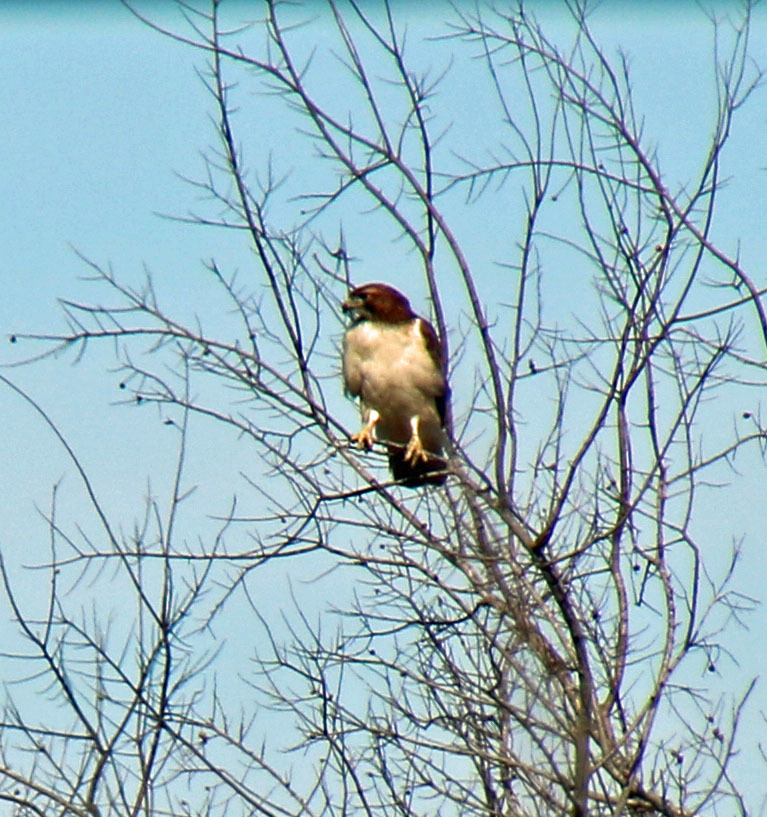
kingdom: Animalia
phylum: Chordata
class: Aves
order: Accipitriformes
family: Accipitridae
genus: Buteo
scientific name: Buteo jamaicensis
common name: Red-tailed hawk
